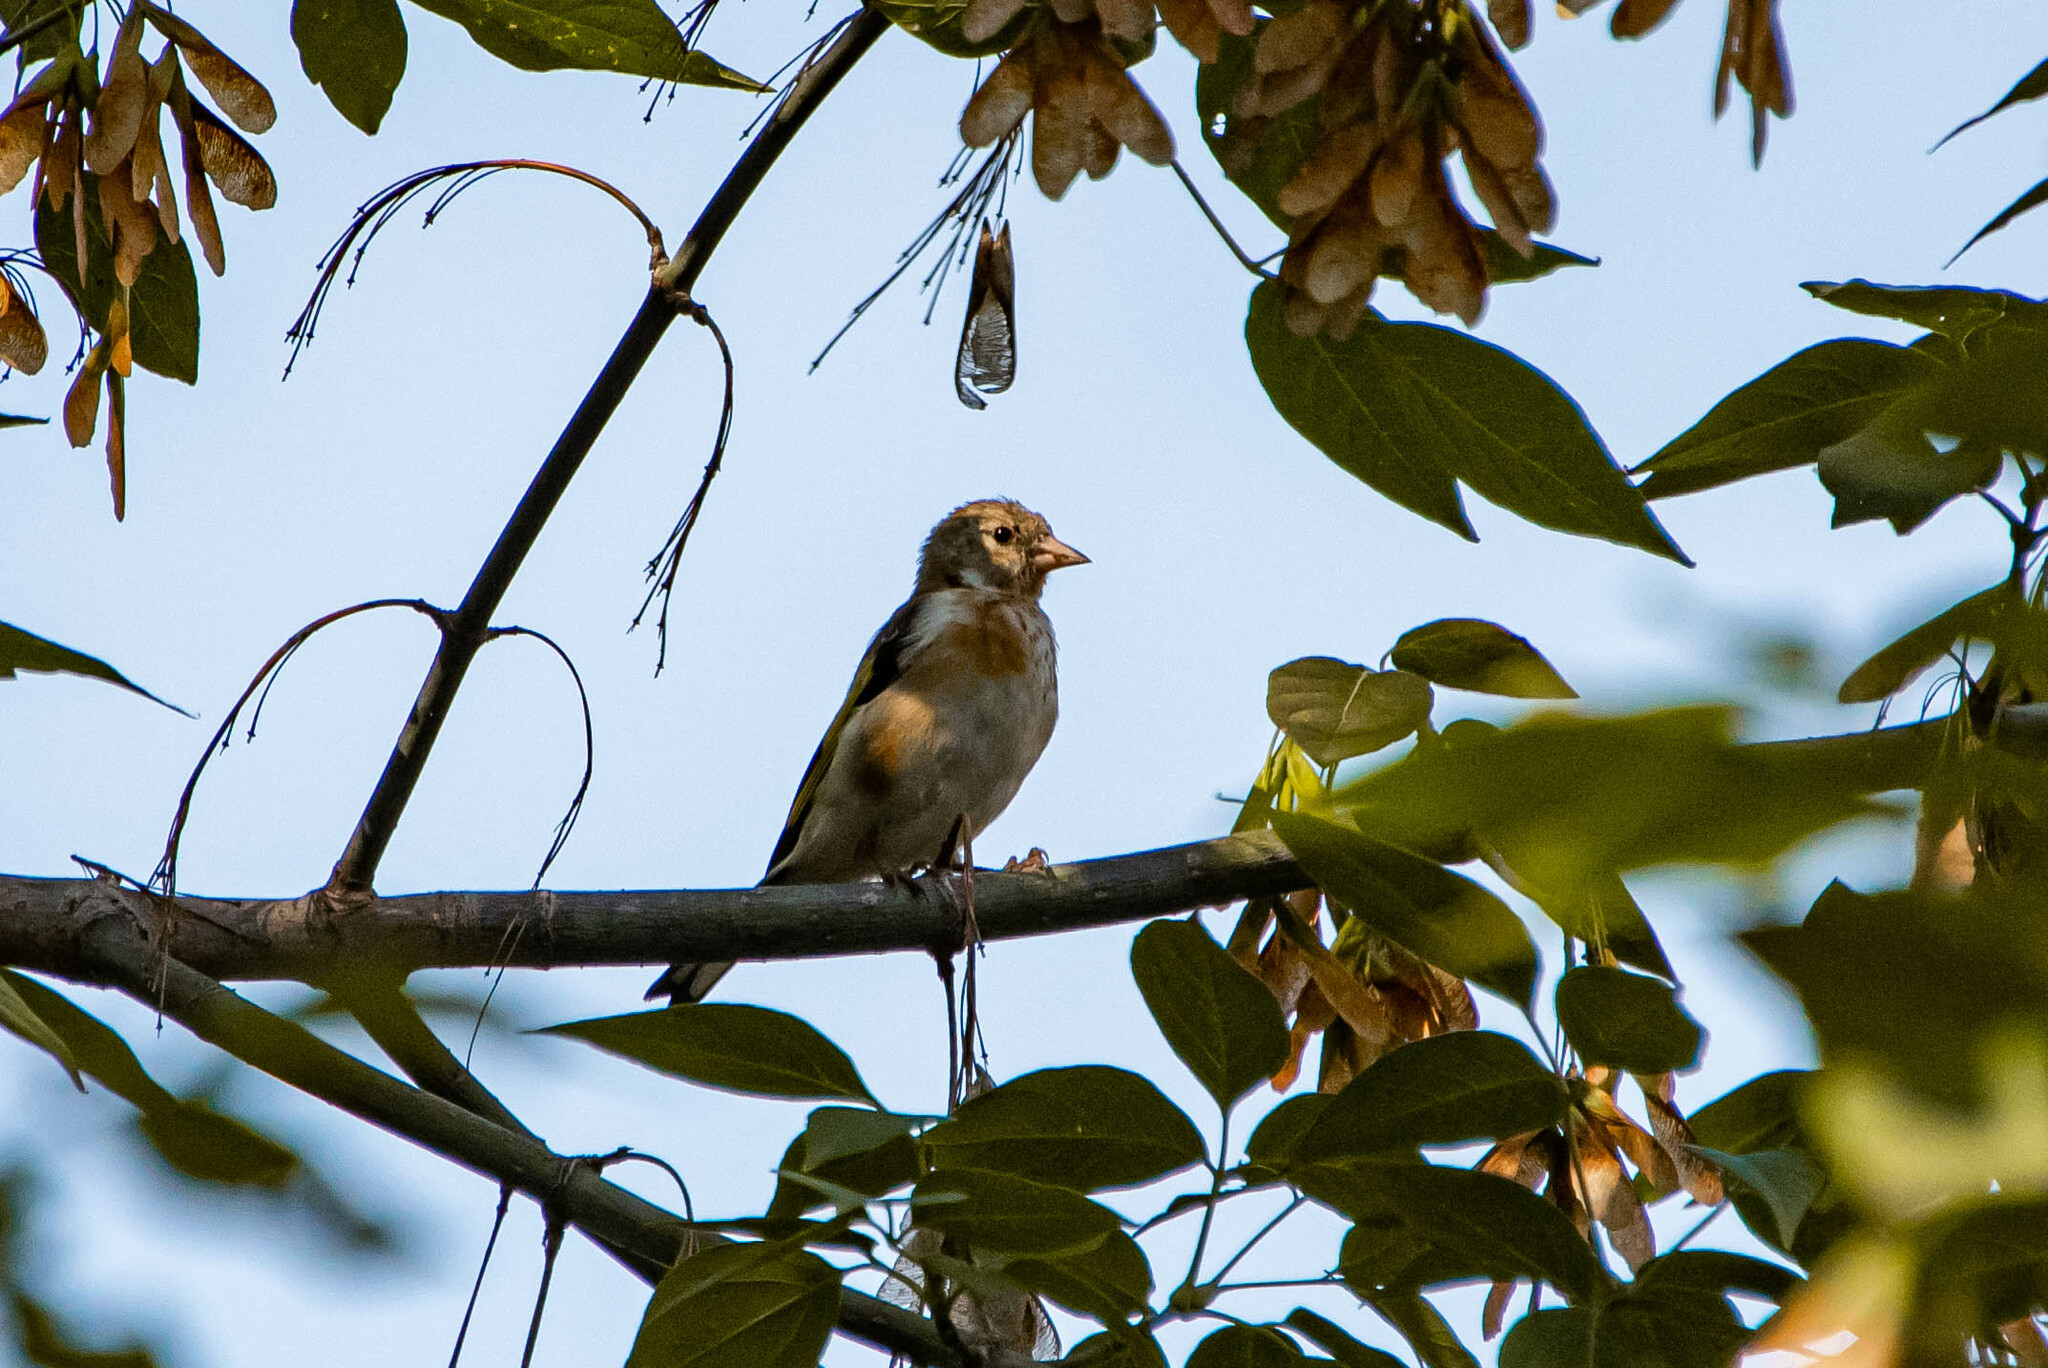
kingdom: Animalia
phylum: Chordata
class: Aves
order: Passeriformes
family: Fringillidae
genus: Carduelis
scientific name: Carduelis carduelis
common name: European goldfinch
